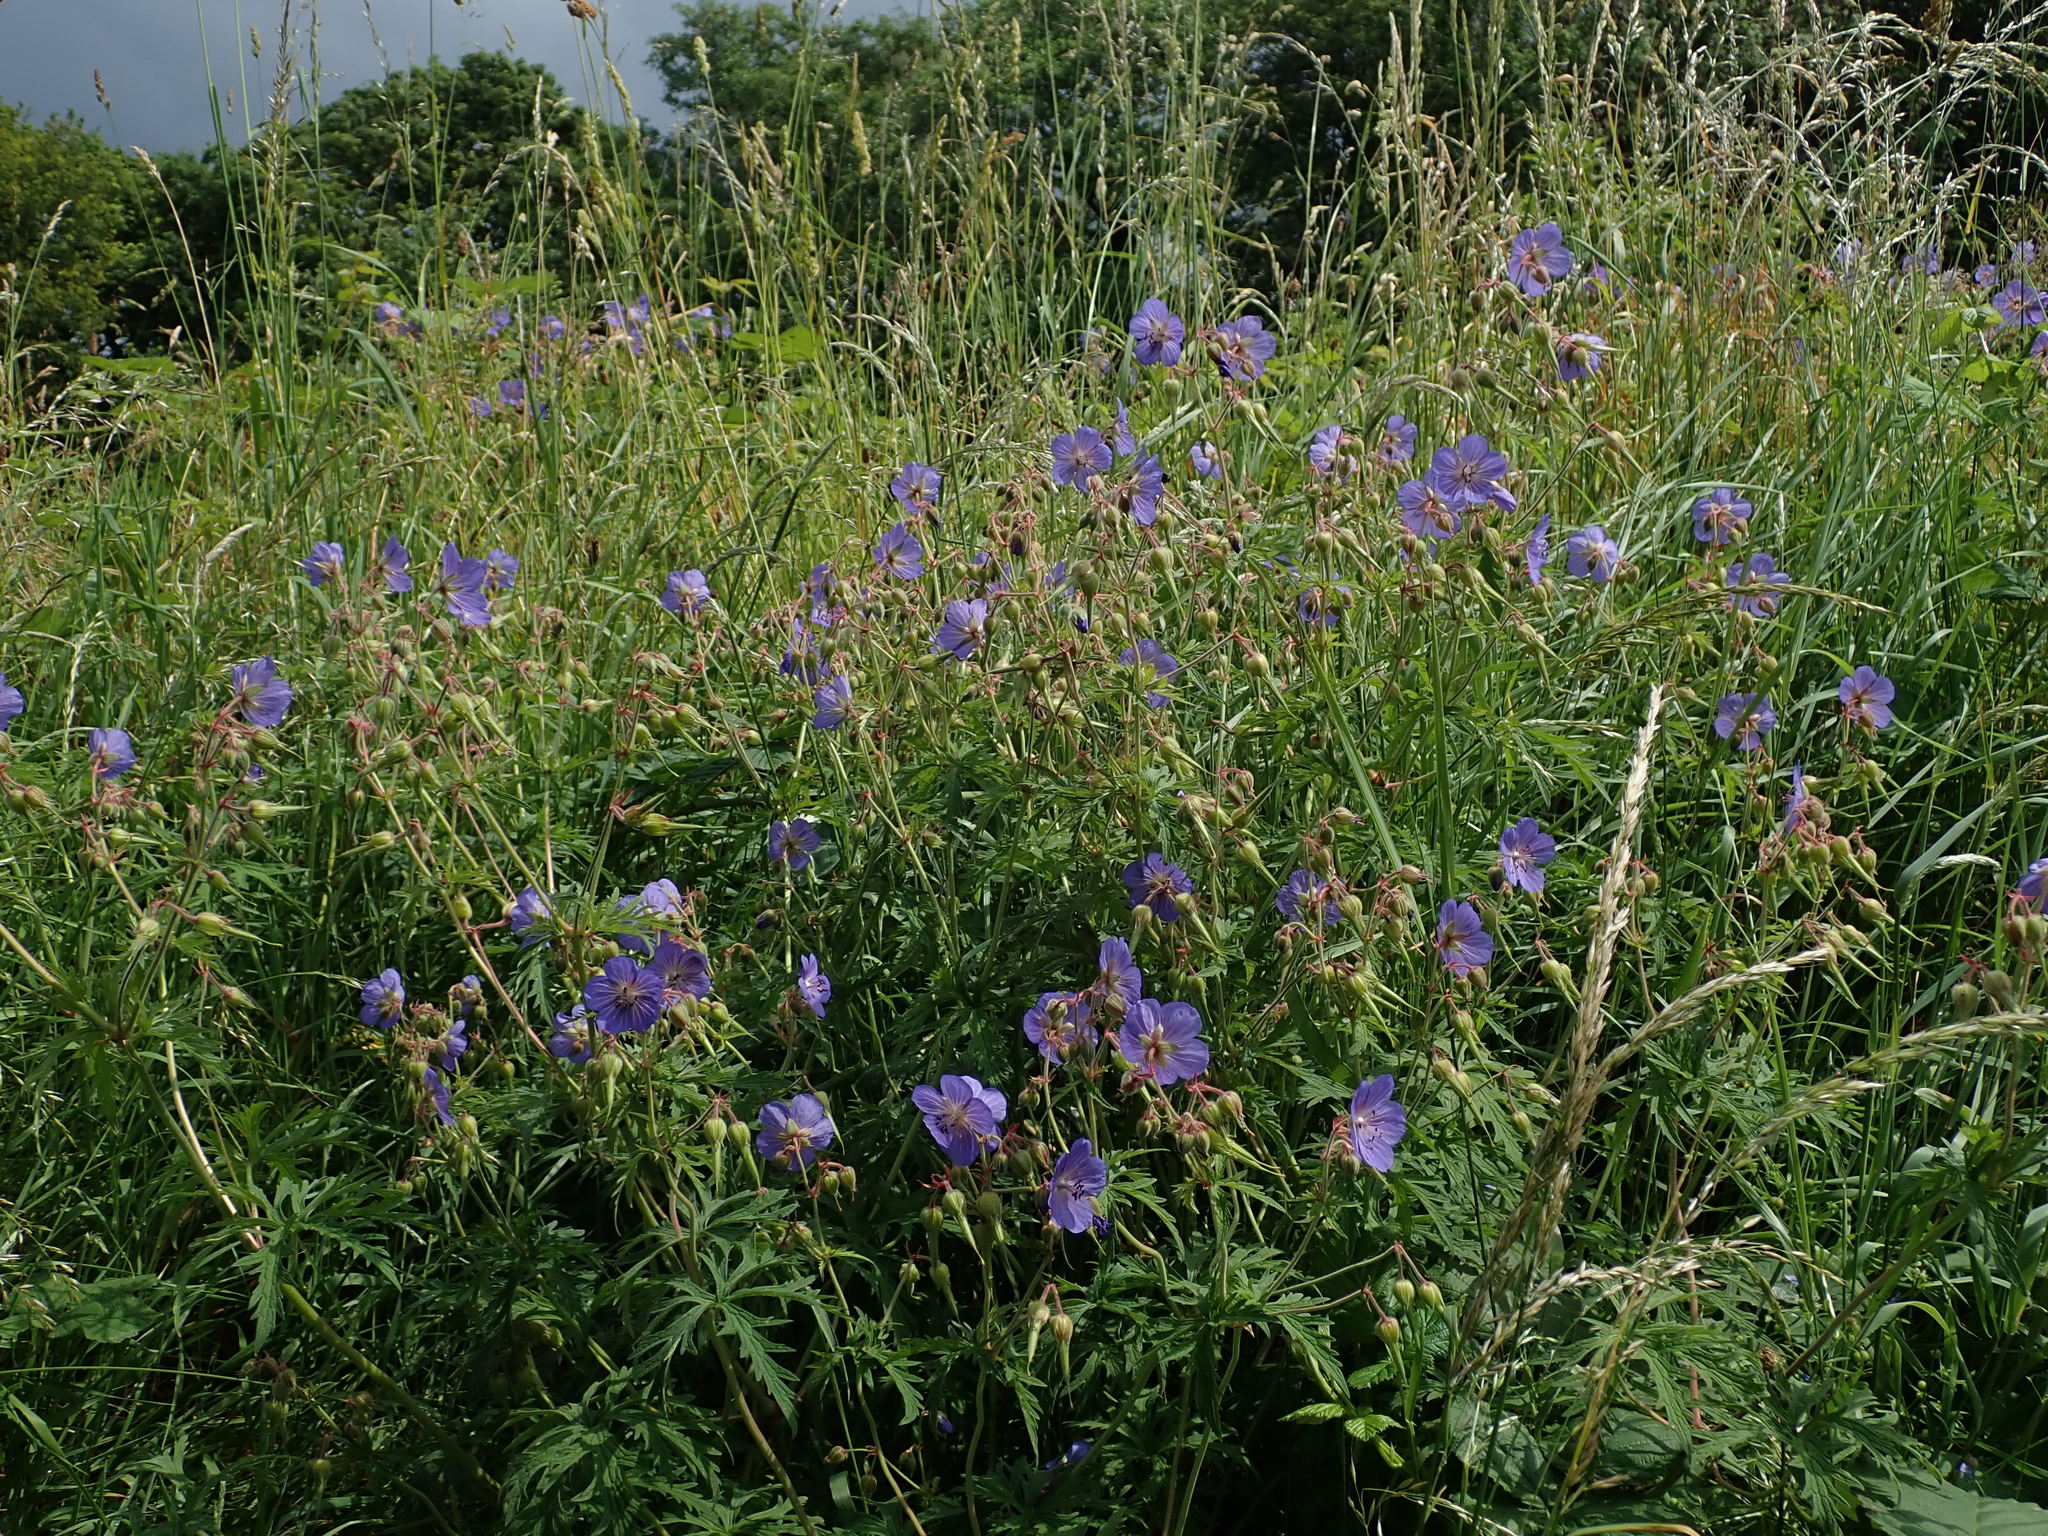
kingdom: Plantae
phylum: Tracheophyta
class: Magnoliopsida
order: Geraniales
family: Geraniaceae
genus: Geranium
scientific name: Geranium pratense
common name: Meadow crane's-bill
